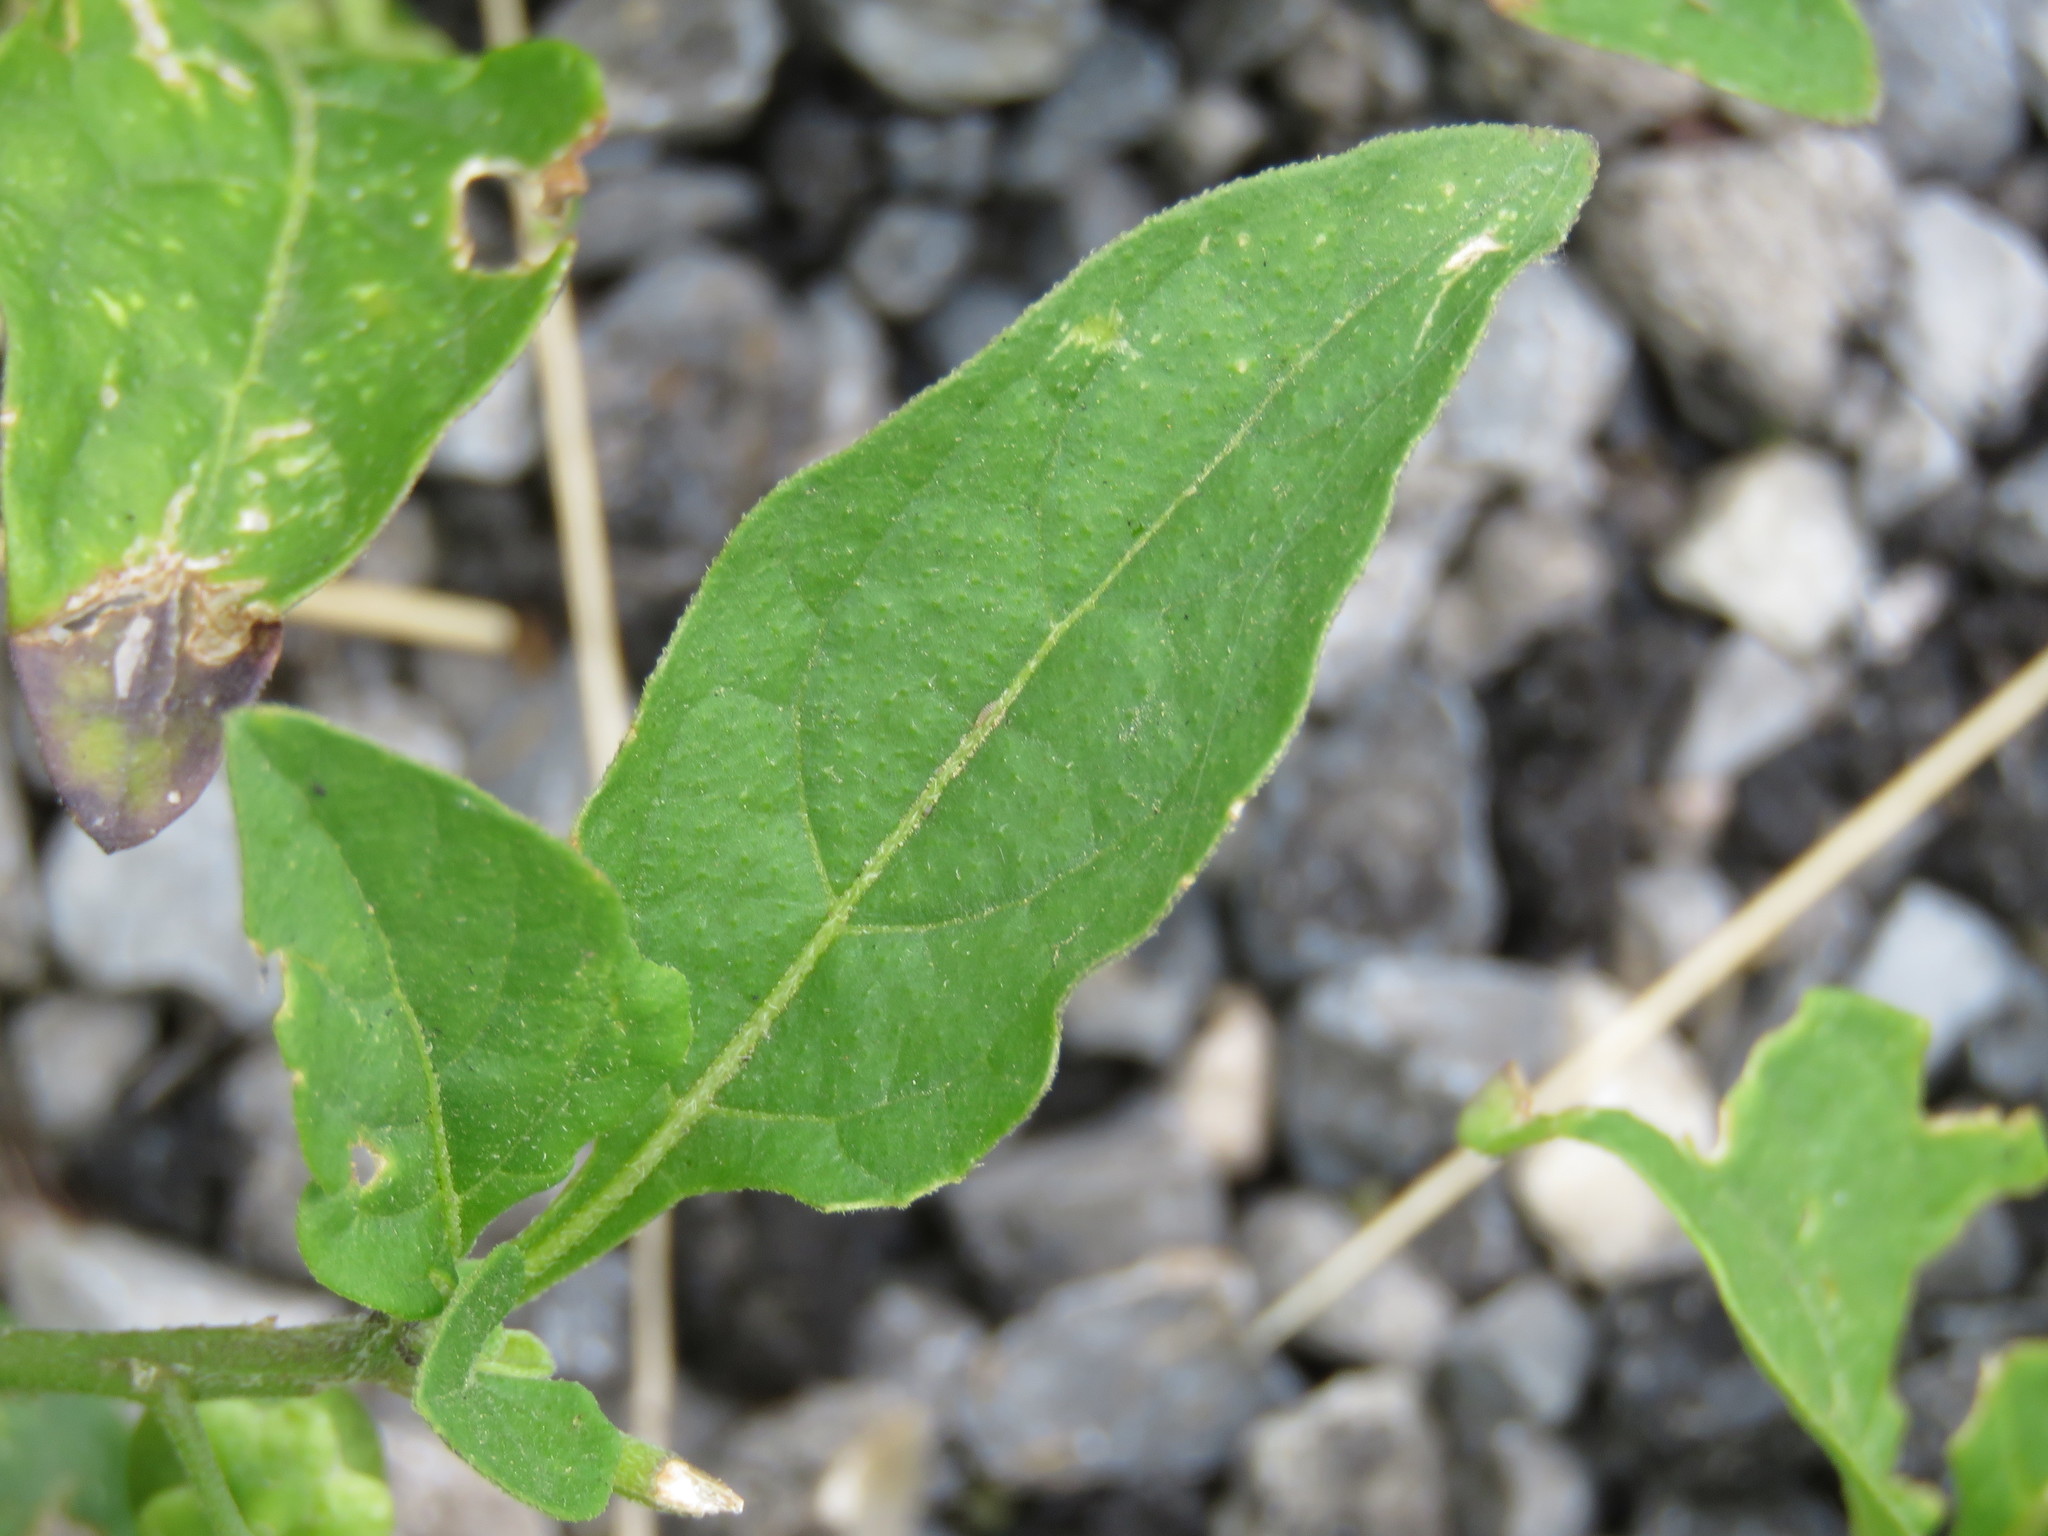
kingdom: Plantae
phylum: Tracheophyta
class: Magnoliopsida
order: Solanales
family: Solanaceae
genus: Solanum
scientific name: Solanum americanum
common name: American black nightshade
